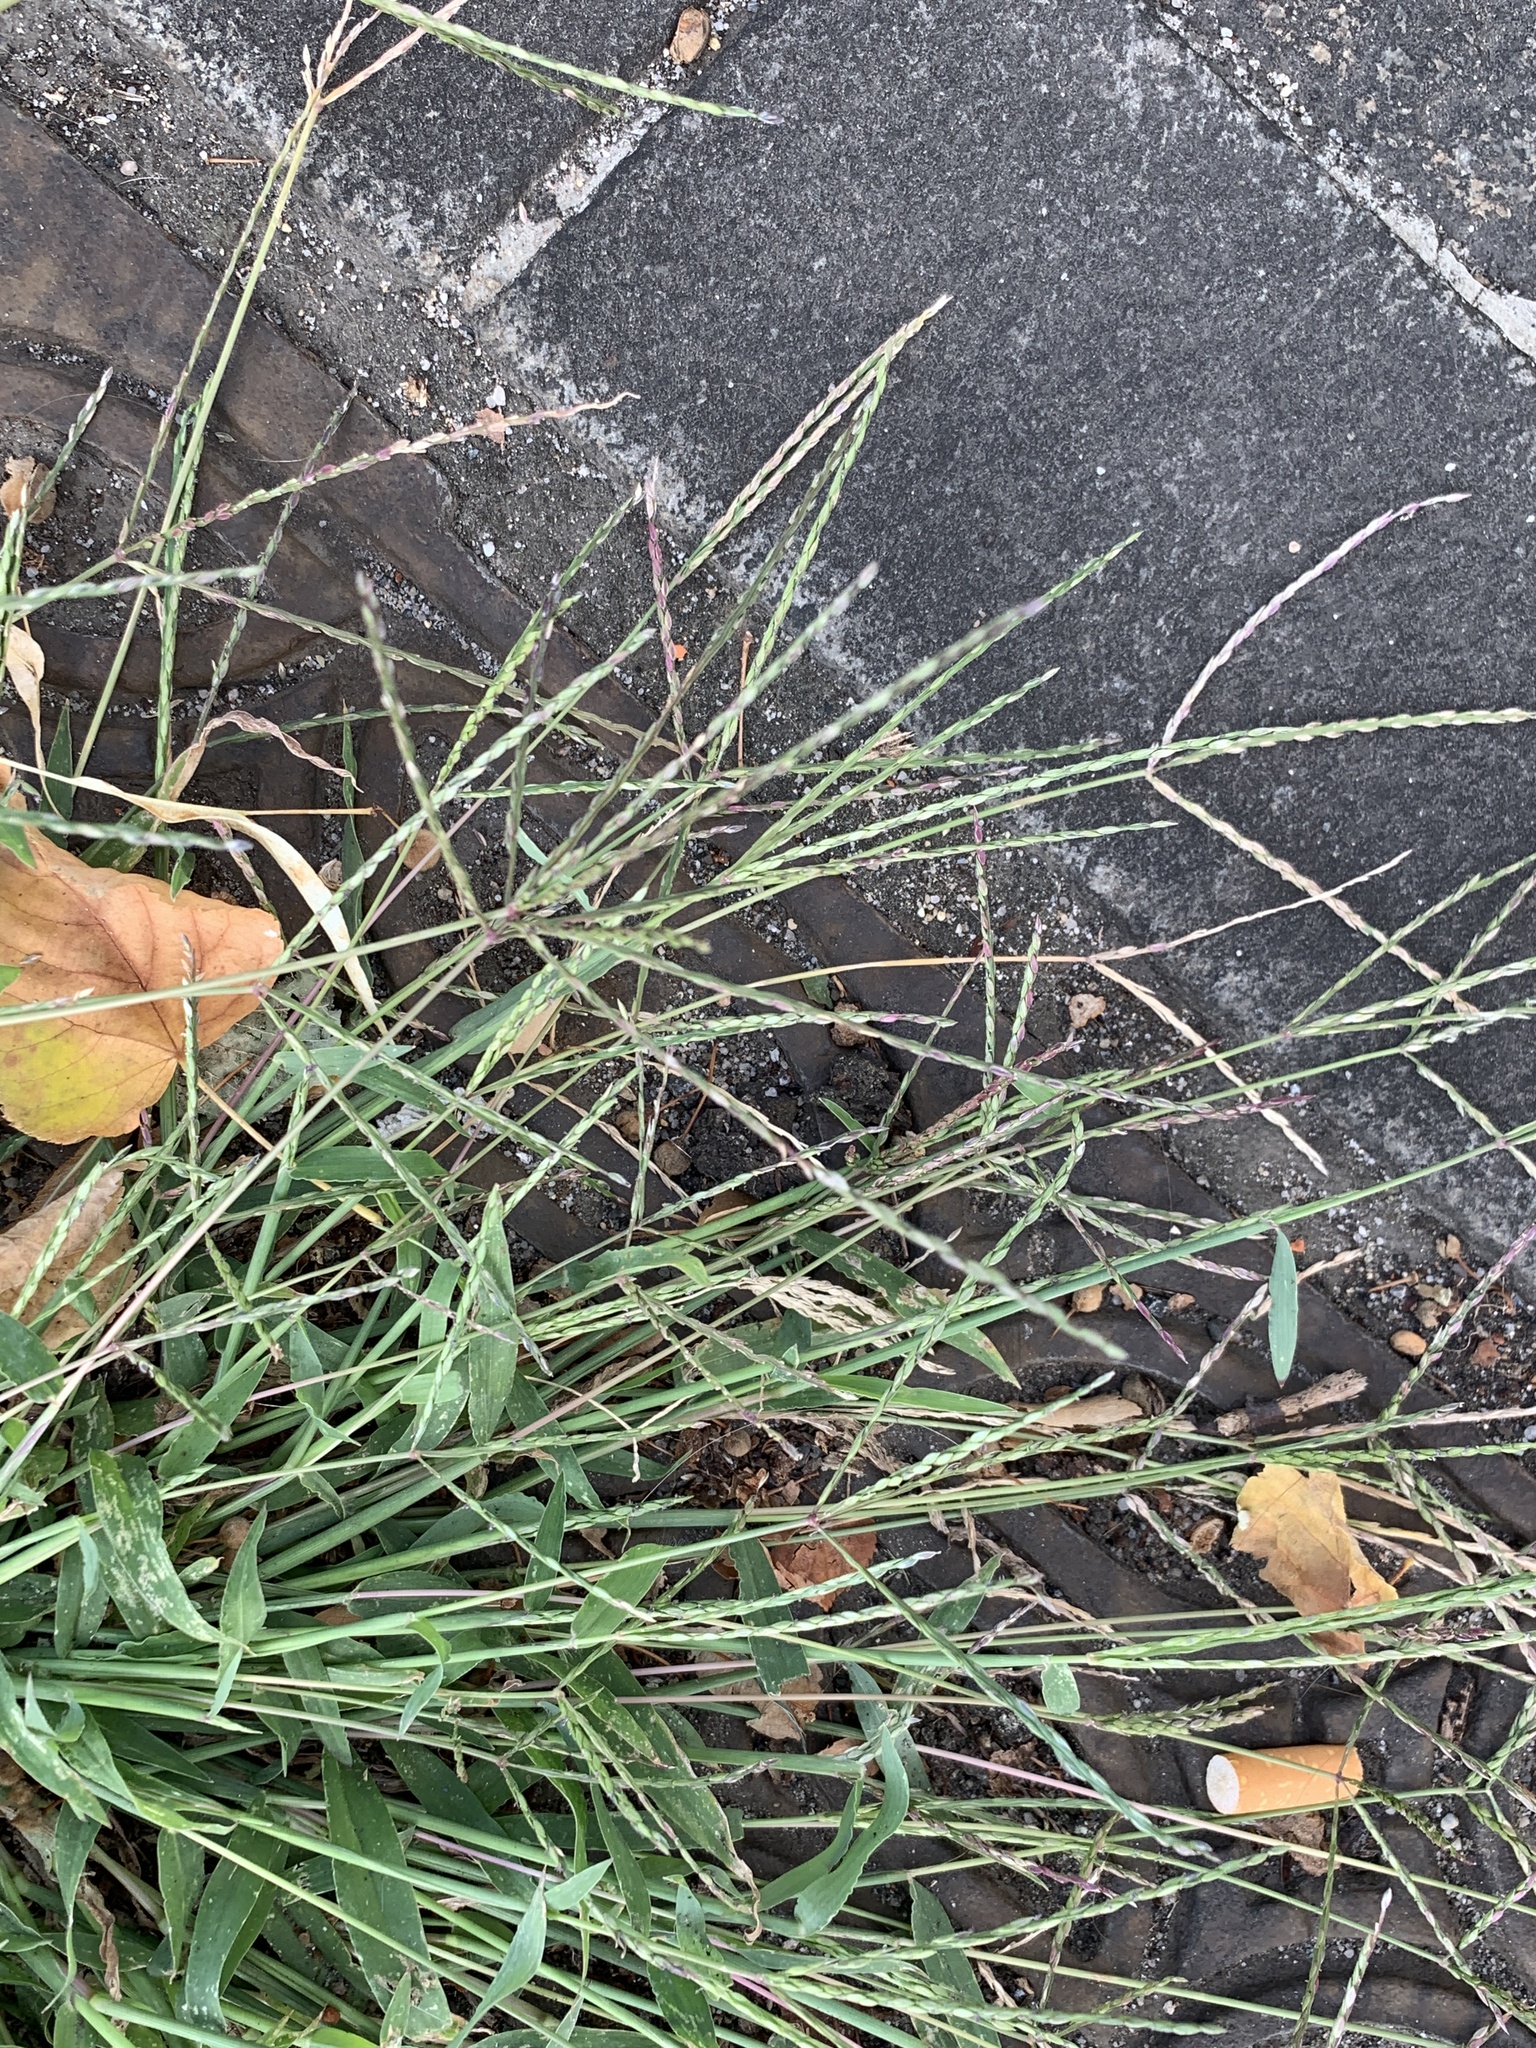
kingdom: Plantae
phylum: Tracheophyta
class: Liliopsida
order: Poales
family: Poaceae
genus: Digitaria
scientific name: Digitaria sanguinalis
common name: Hairy crabgrass
